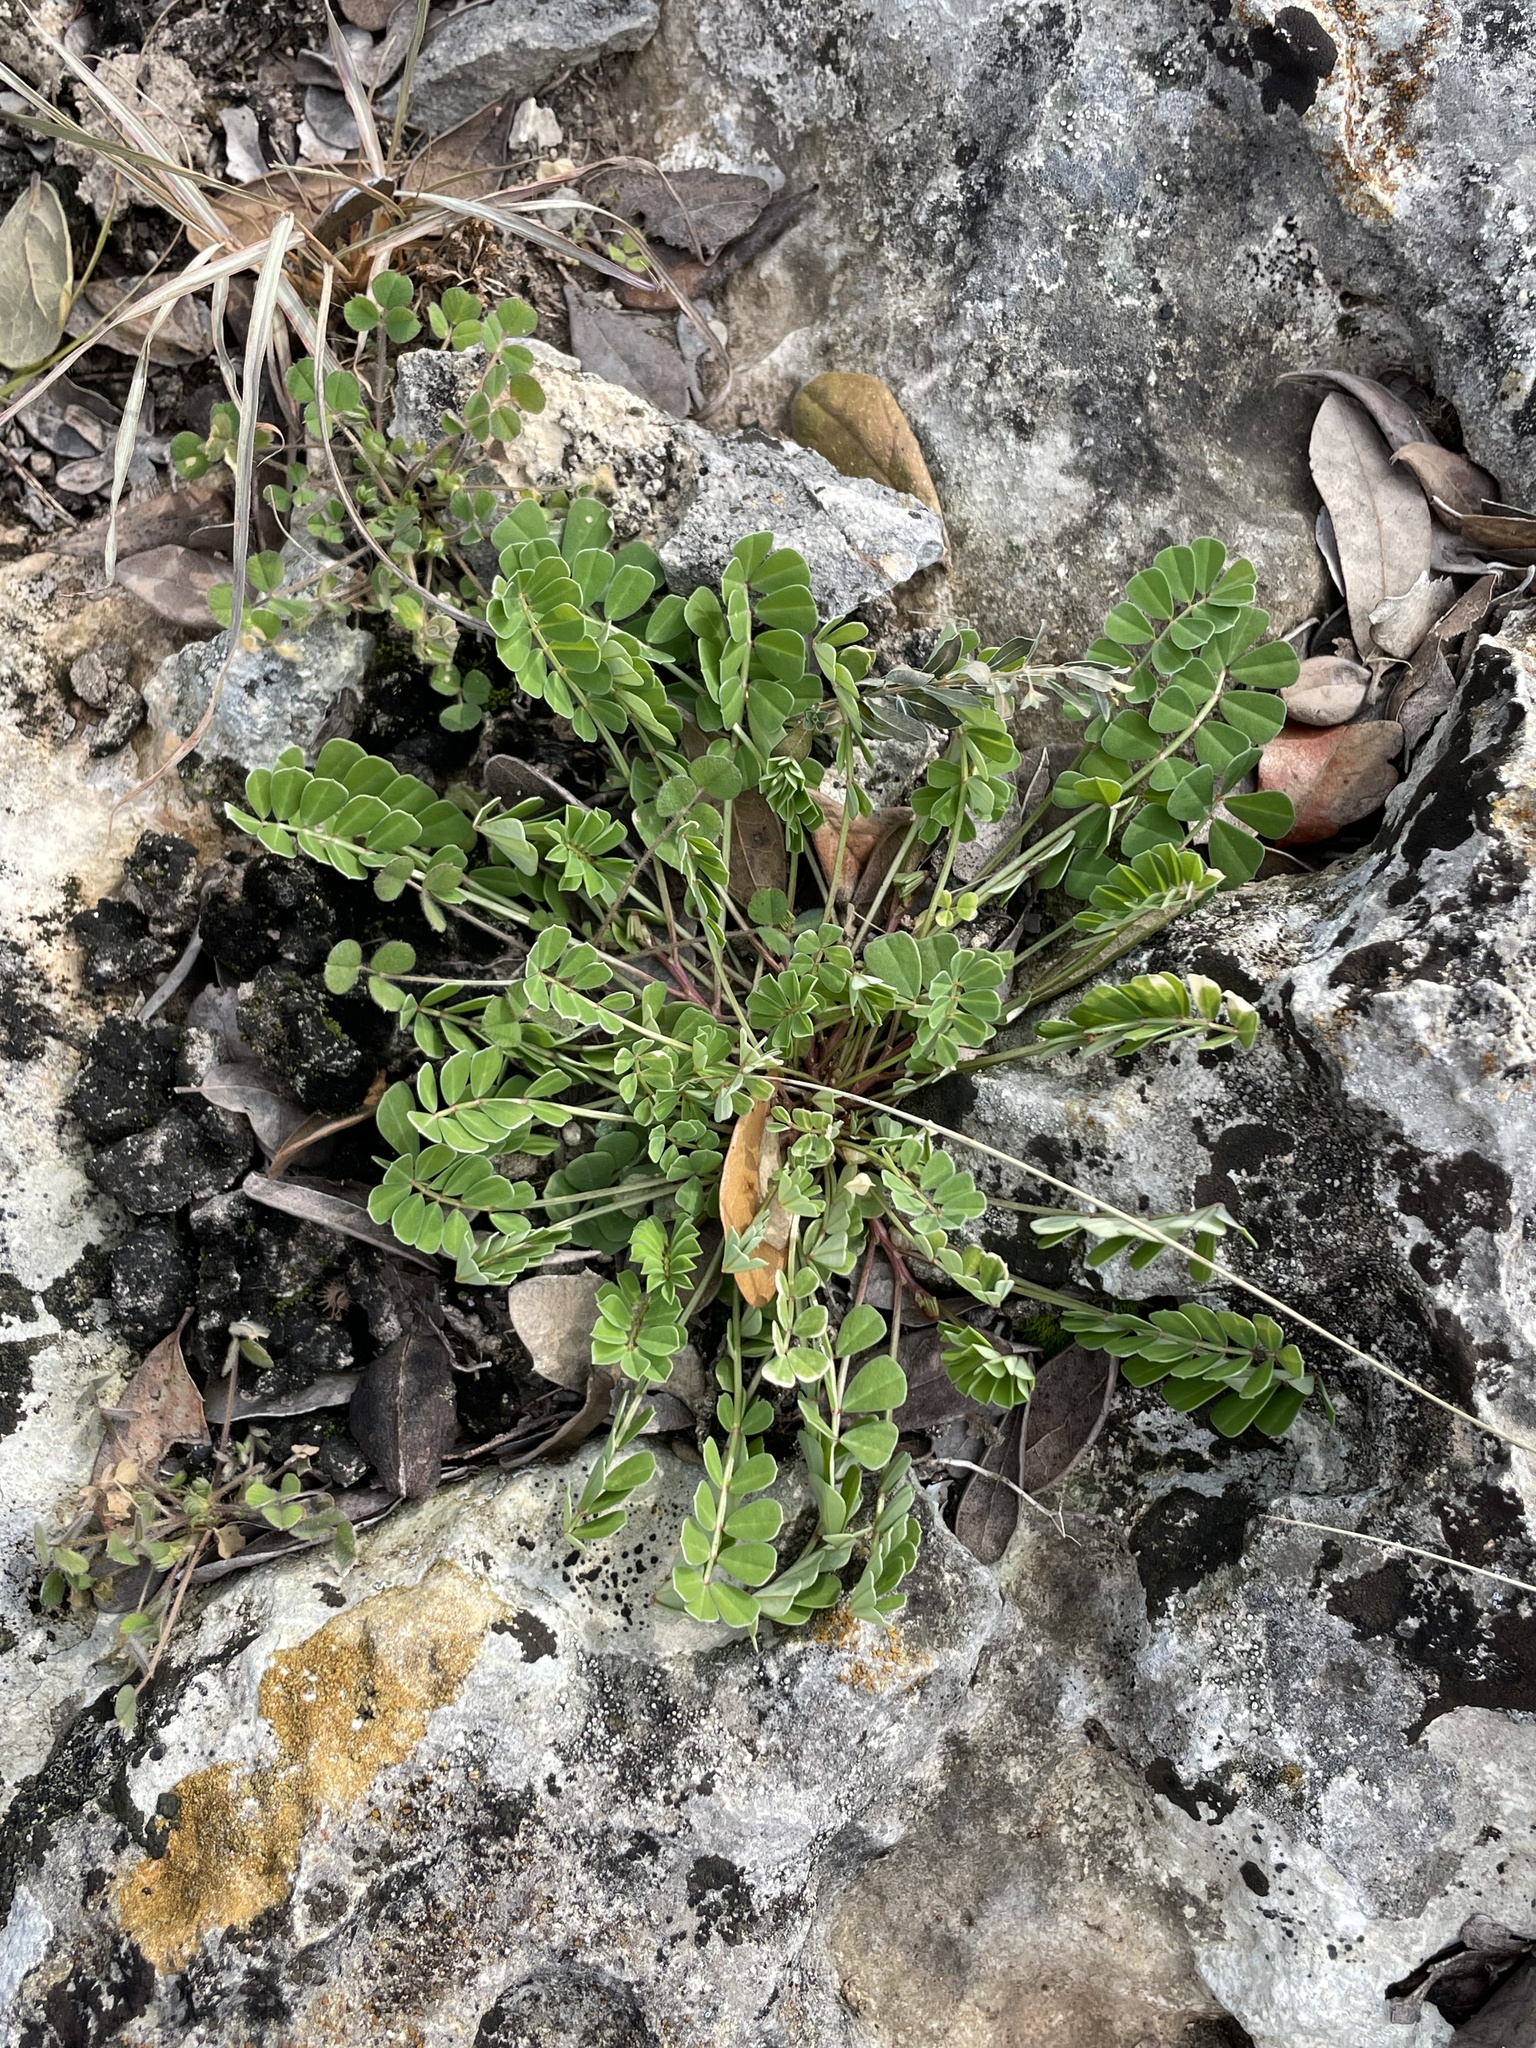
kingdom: Plantae
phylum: Tracheophyta
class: Magnoliopsida
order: Fabales
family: Fabaceae
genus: Coronilla
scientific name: Coronilla cretica
